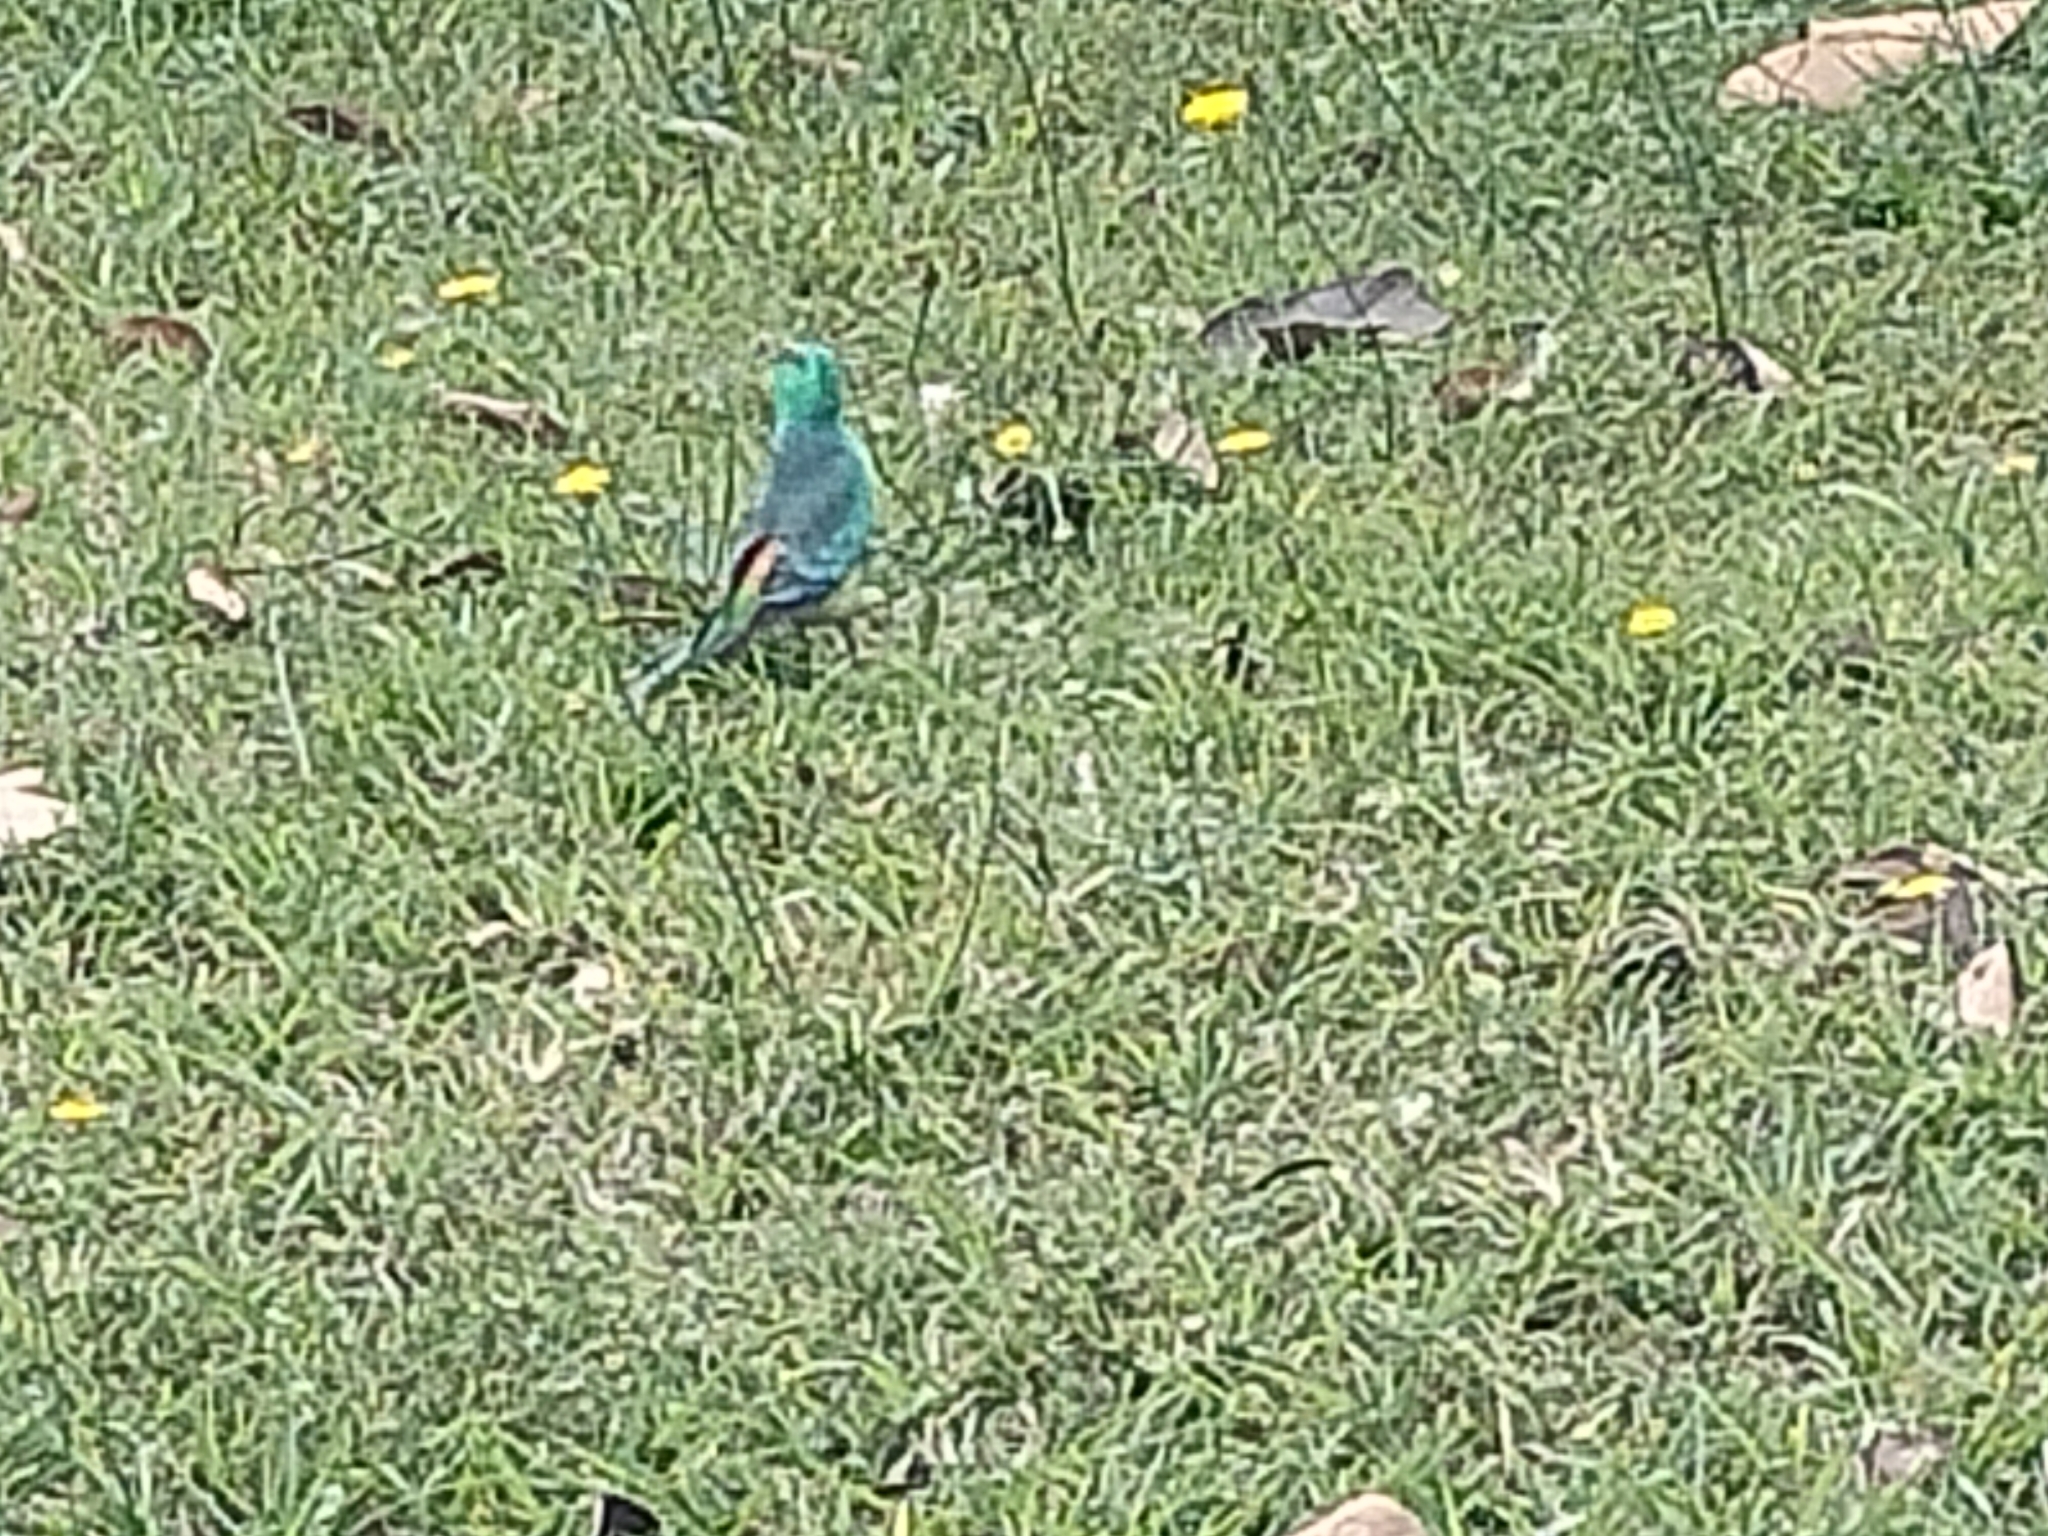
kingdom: Animalia
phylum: Chordata
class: Aves
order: Psittaciformes
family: Psittacidae
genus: Psephotus
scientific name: Psephotus haematonotus
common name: Red-rumped parrot
